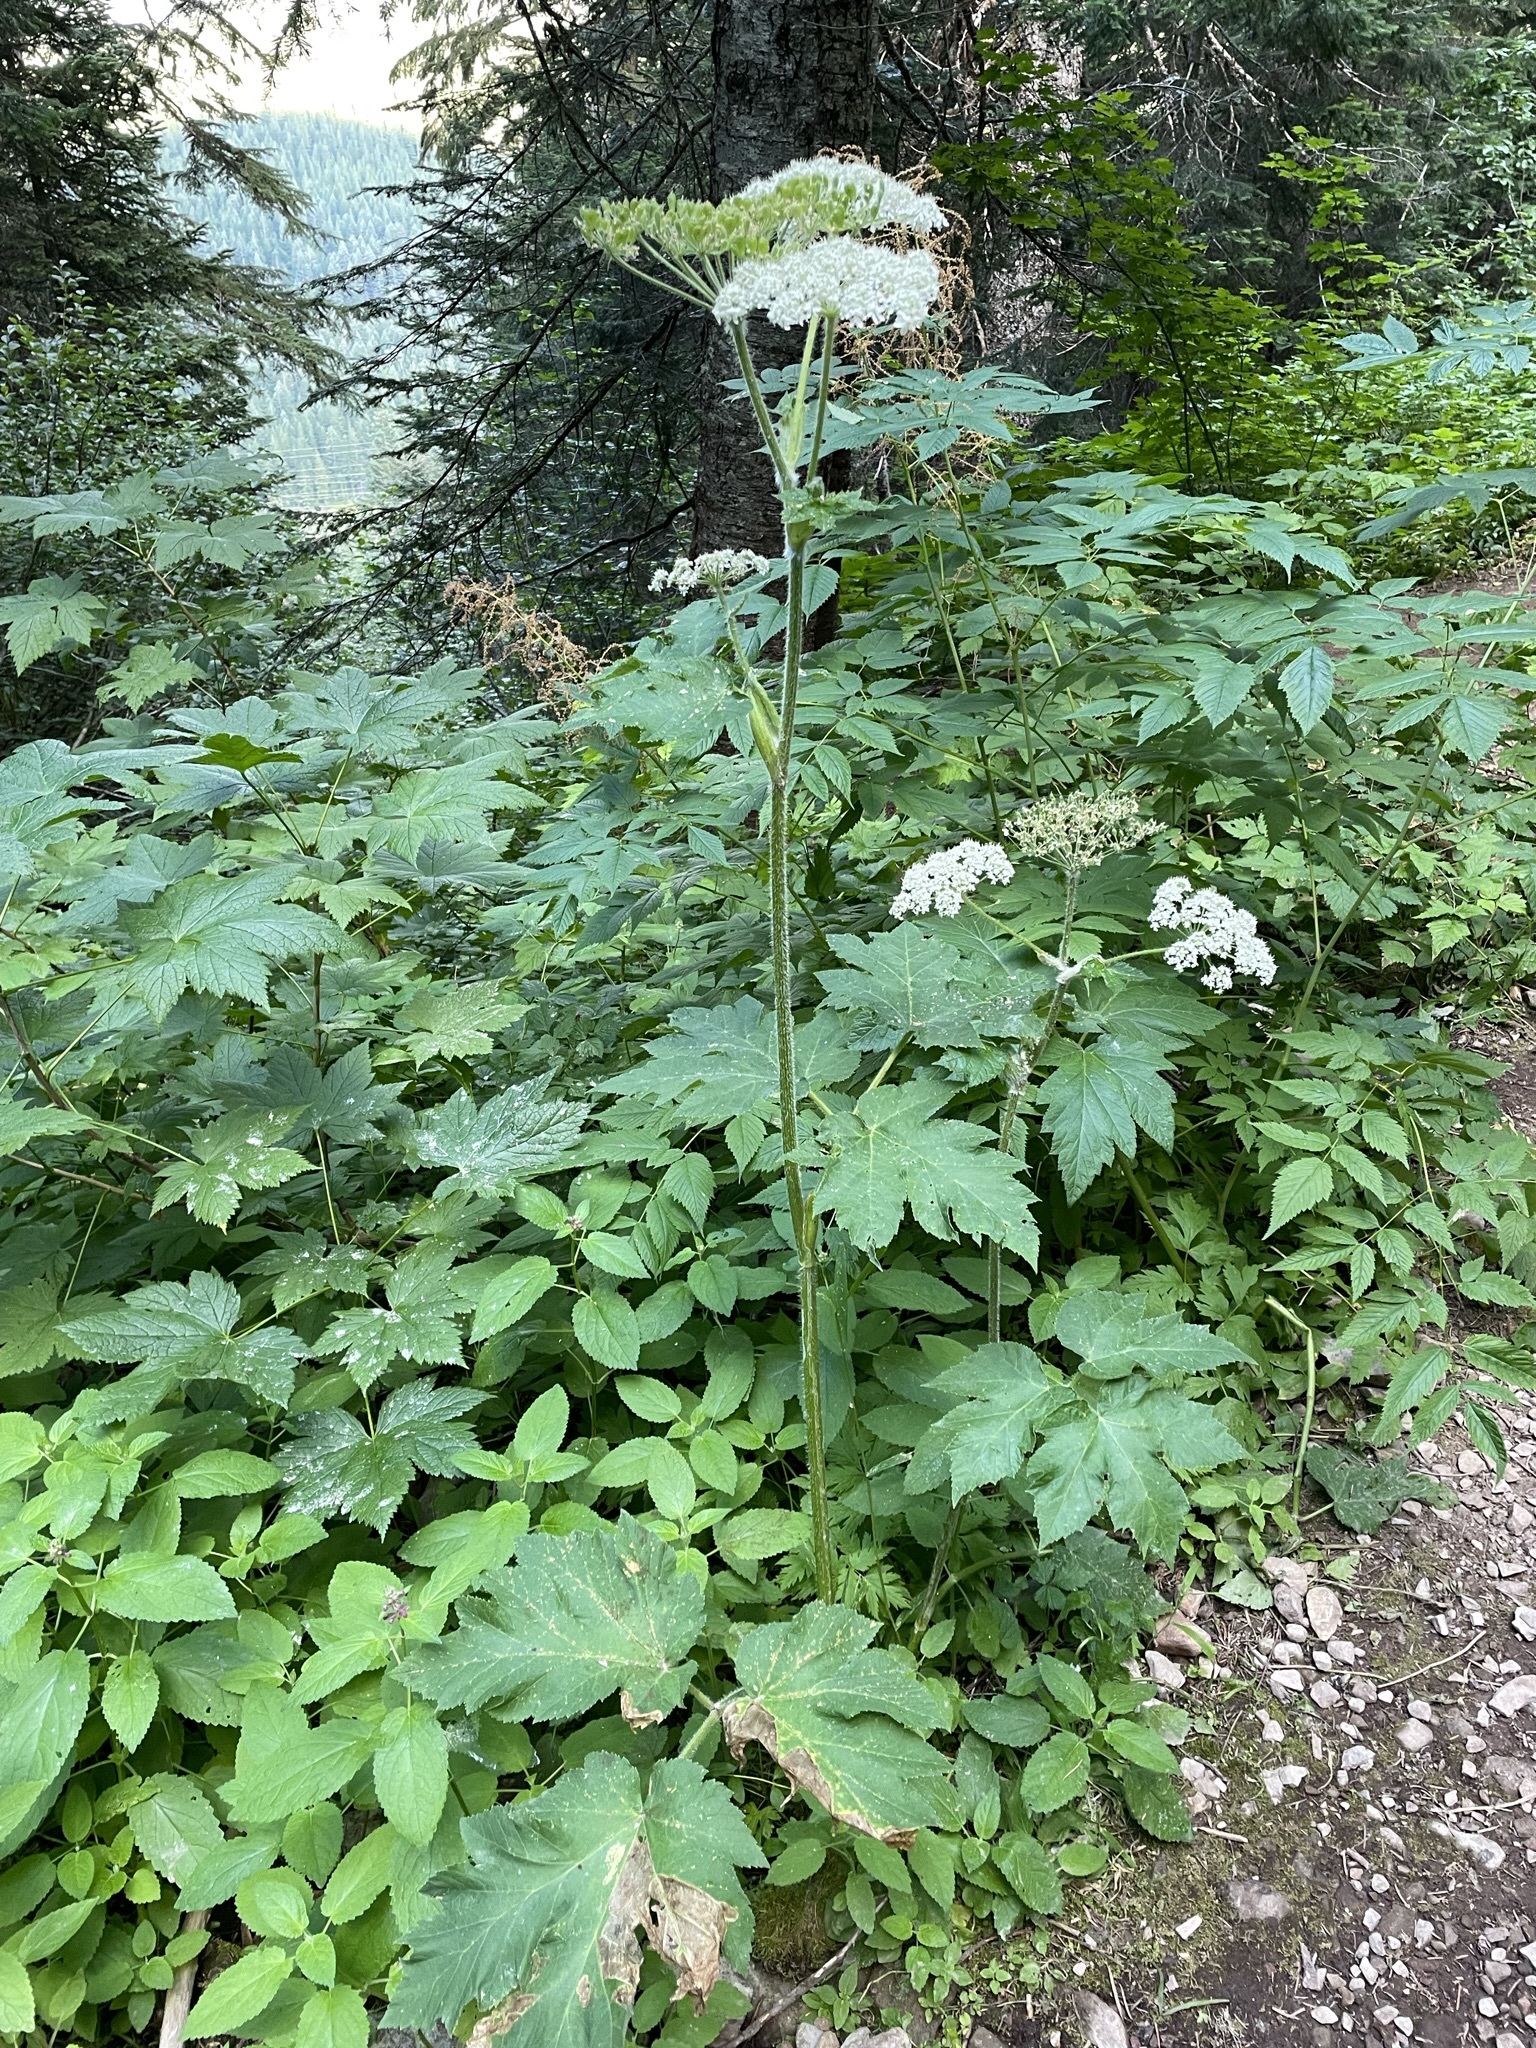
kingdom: Plantae
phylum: Tracheophyta
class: Magnoliopsida
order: Apiales
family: Apiaceae
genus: Heracleum
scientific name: Heracleum maximum
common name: American cow parsnip
